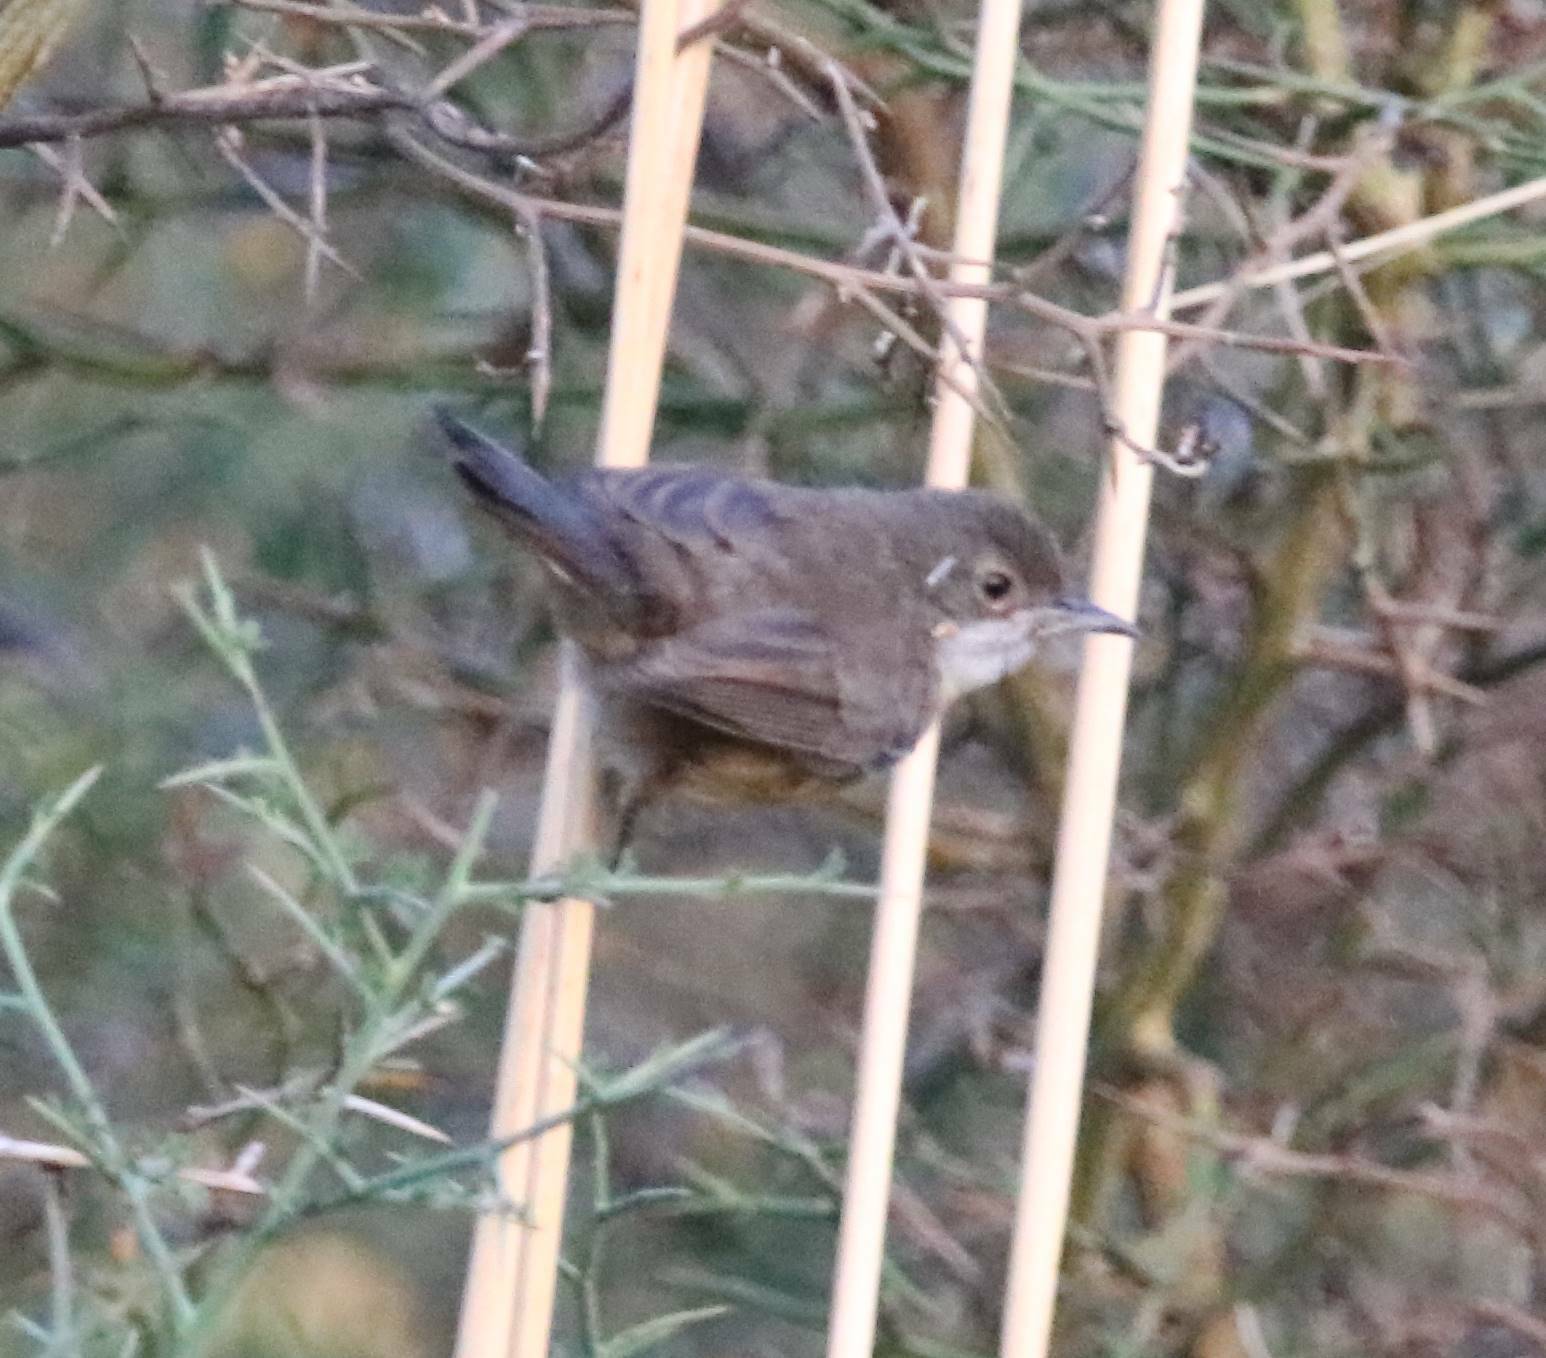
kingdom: Animalia
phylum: Chordata
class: Aves
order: Passeriformes
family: Sylviidae
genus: Curruca
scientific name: Curruca melanocephala
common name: Sardinian warbler
